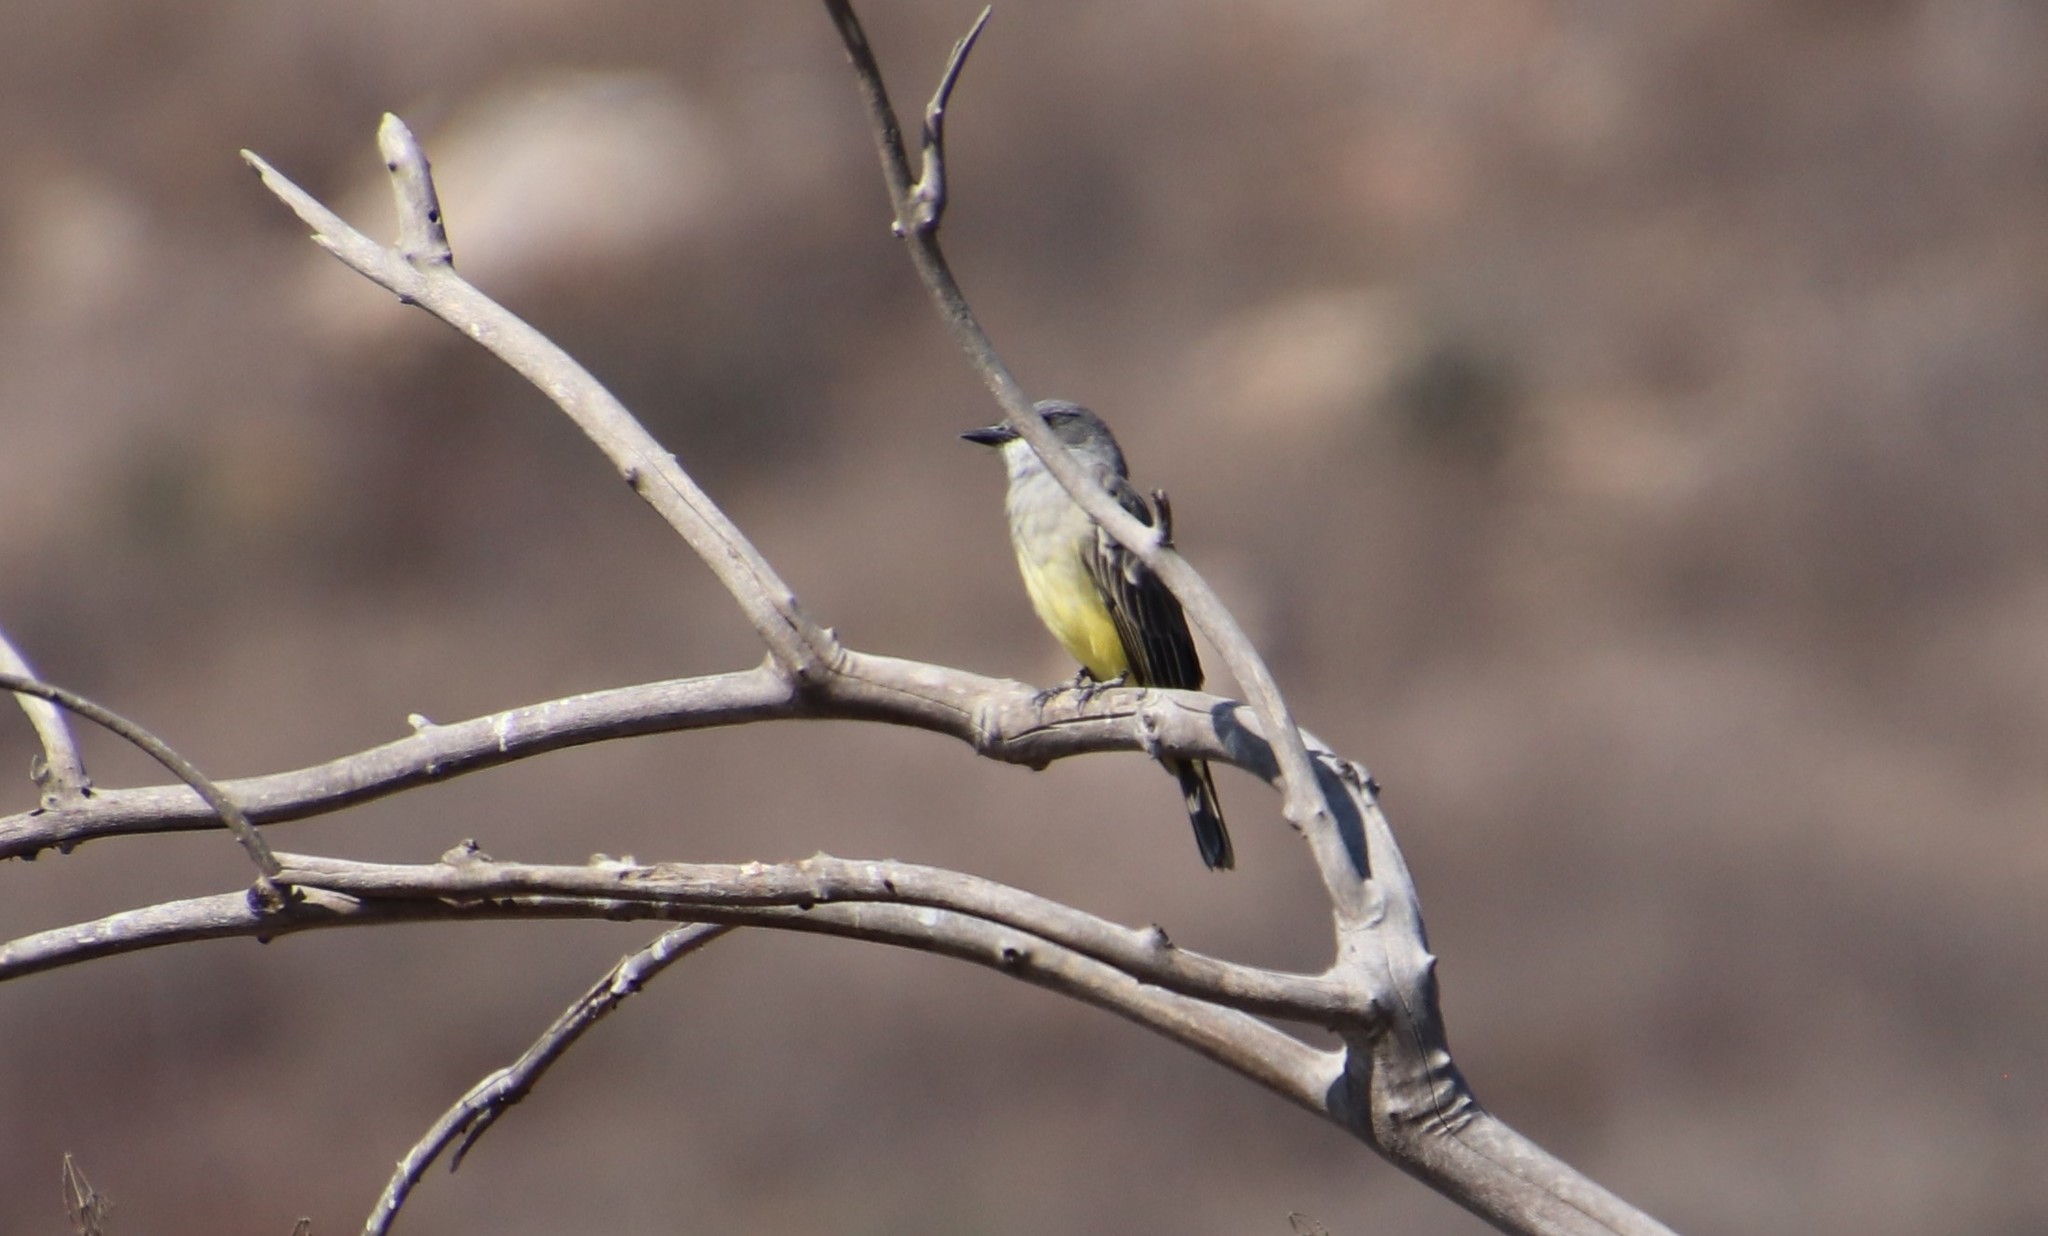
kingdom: Animalia
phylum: Chordata
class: Aves
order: Passeriformes
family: Tyrannidae
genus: Tyrannus
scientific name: Tyrannus vociferans
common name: Cassin's kingbird
